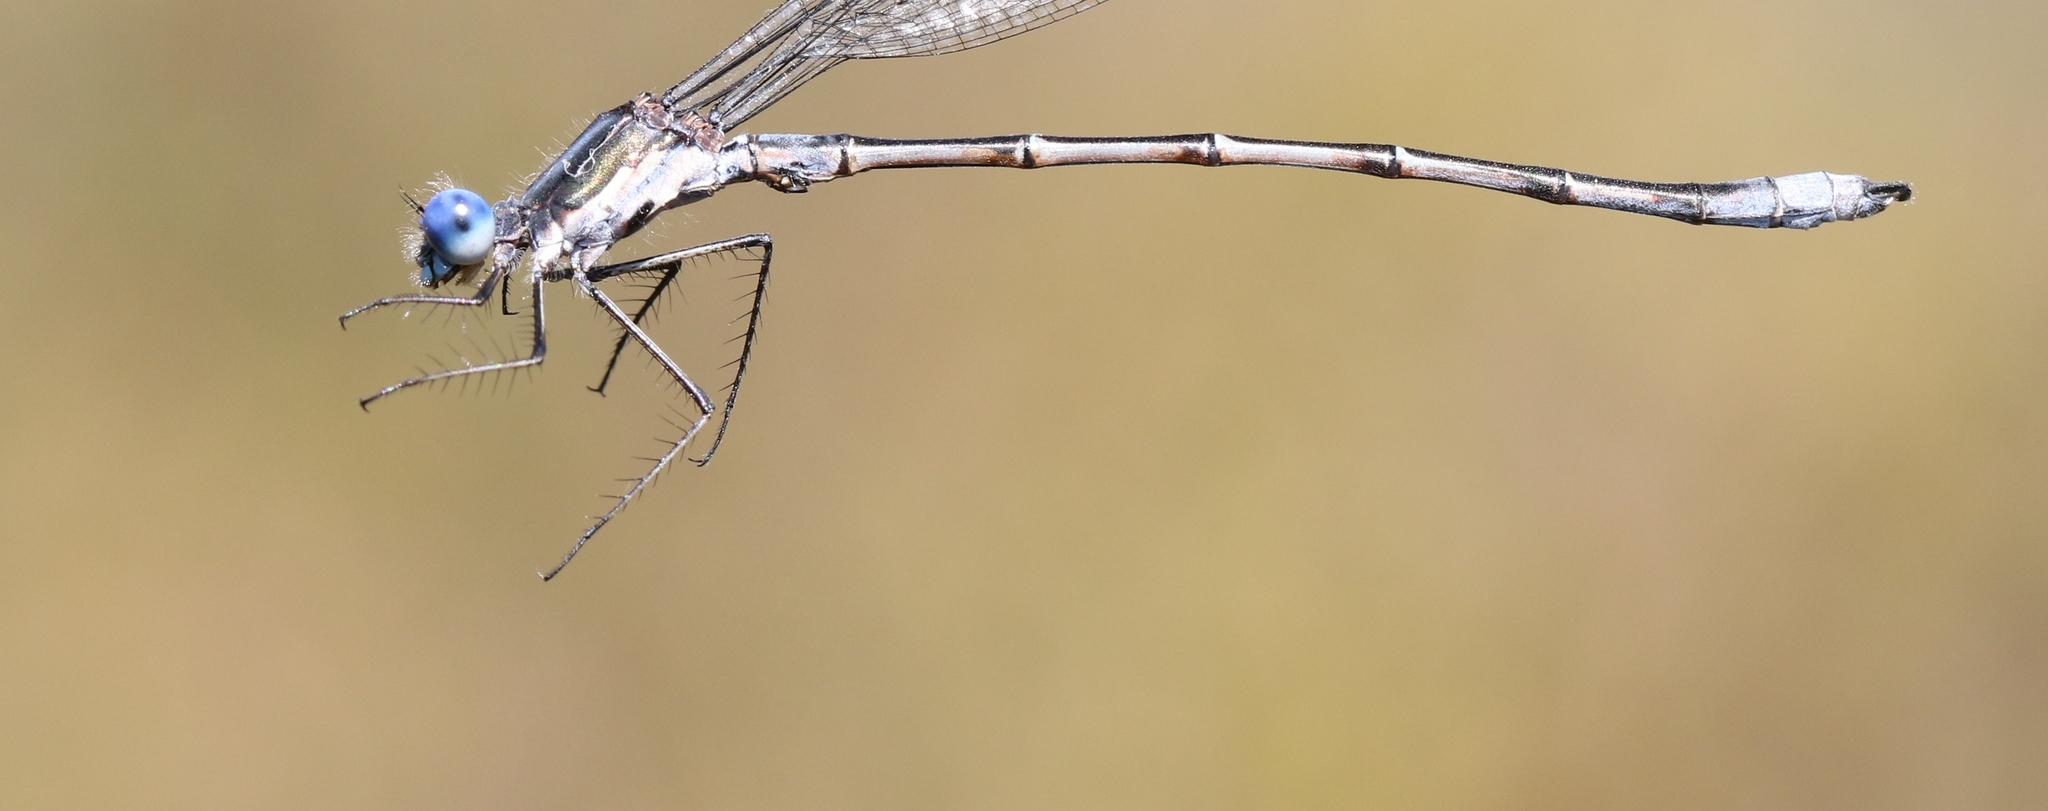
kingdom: Animalia
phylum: Arthropoda
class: Insecta
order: Odonata
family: Lestidae
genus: Lestes
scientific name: Lestes congener
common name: Spotted spreadwing
